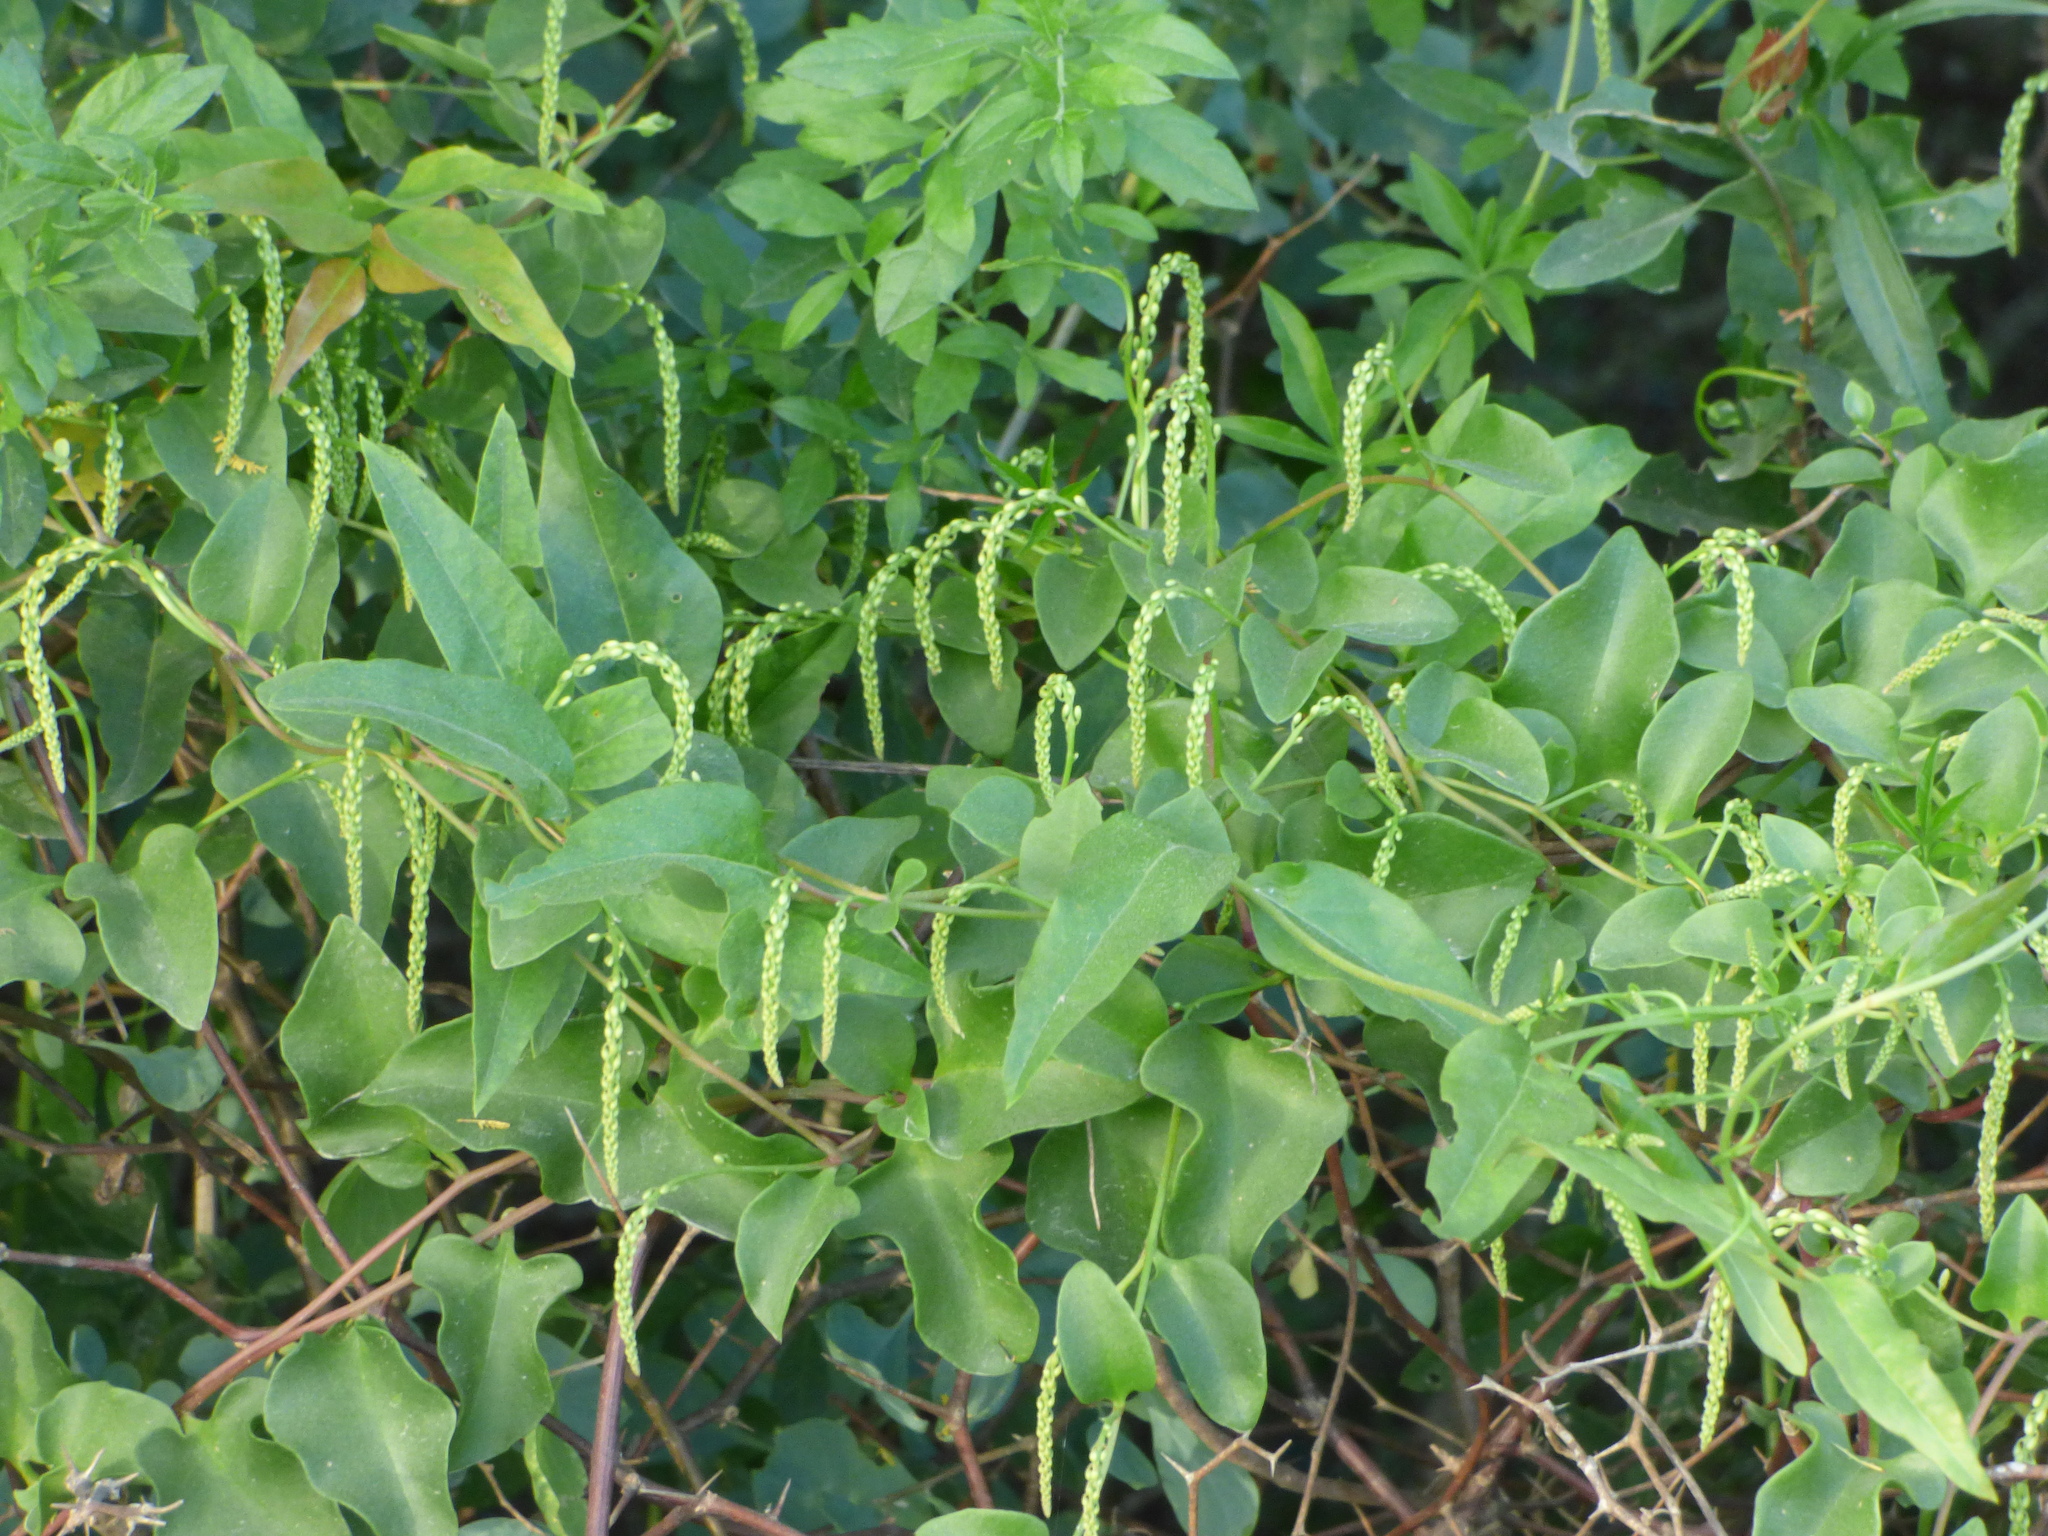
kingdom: Plantae
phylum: Tracheophyta
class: Magnoliopsida
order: Caryophyllales
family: Basellaceae
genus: Anredera
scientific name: Anredera cordifolia
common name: Heartleaf madeiravine
